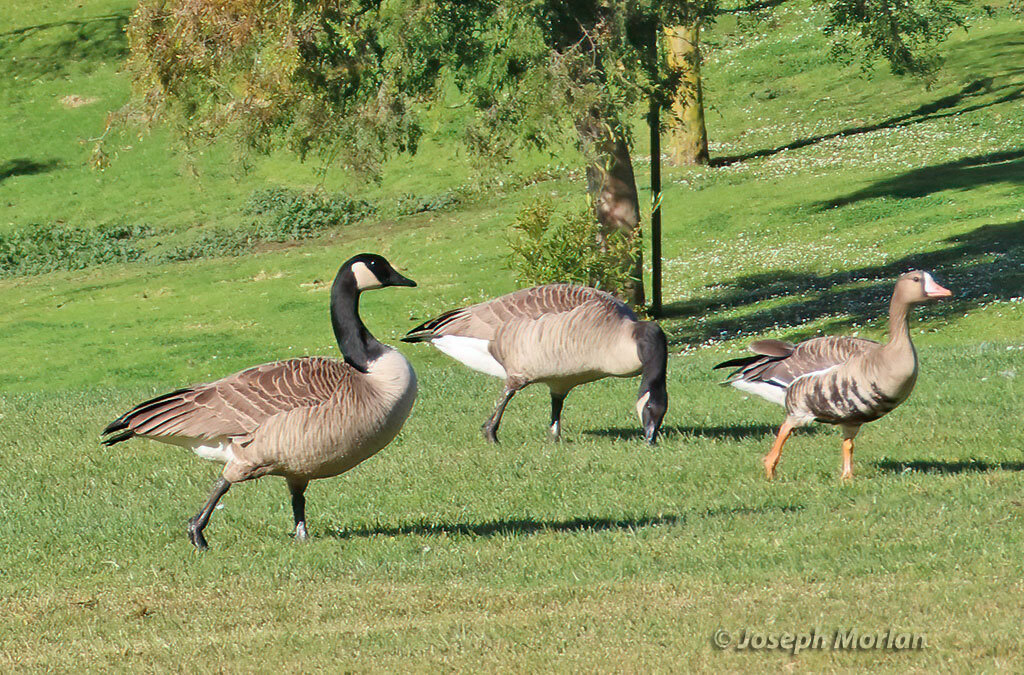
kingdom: Animalia
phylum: Chordata
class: Aves
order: Anseriformes
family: Anatidae
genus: Branta
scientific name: Branta canadensis
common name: Canada goose
